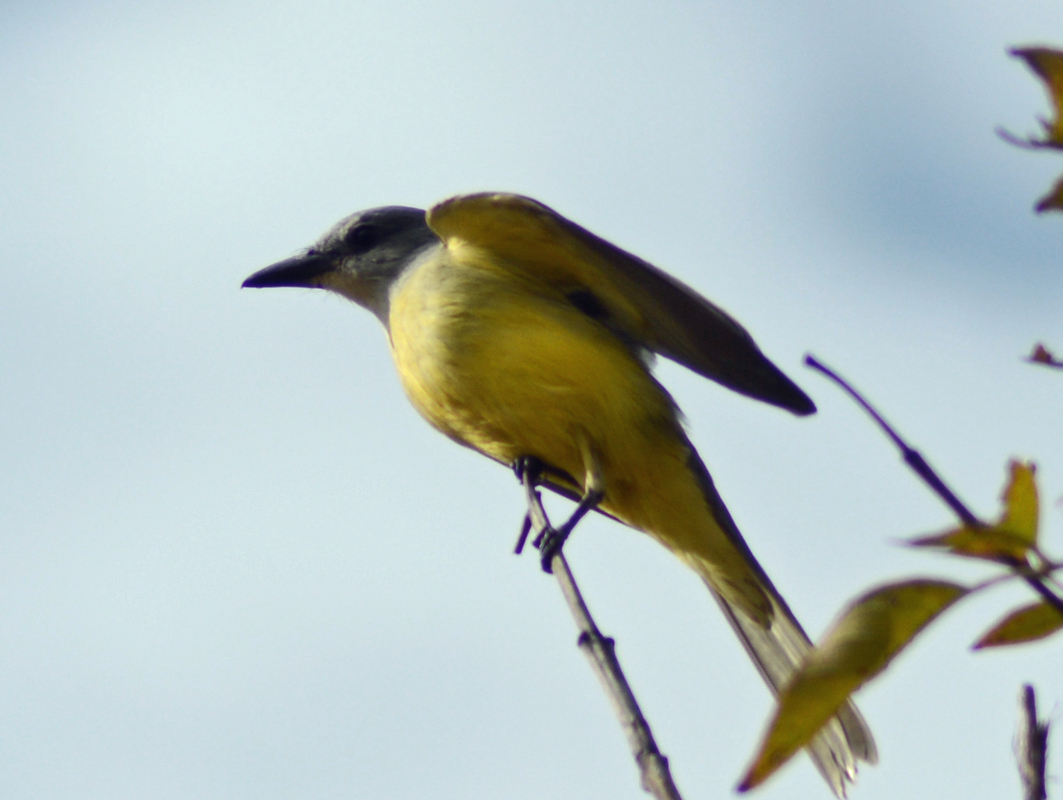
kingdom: Animalia
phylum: Chordata
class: Aves
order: Passeriformes
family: Tyrannidae
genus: Tyrannus
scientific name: Tyrannus melancholicus
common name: Tropical kingbird
